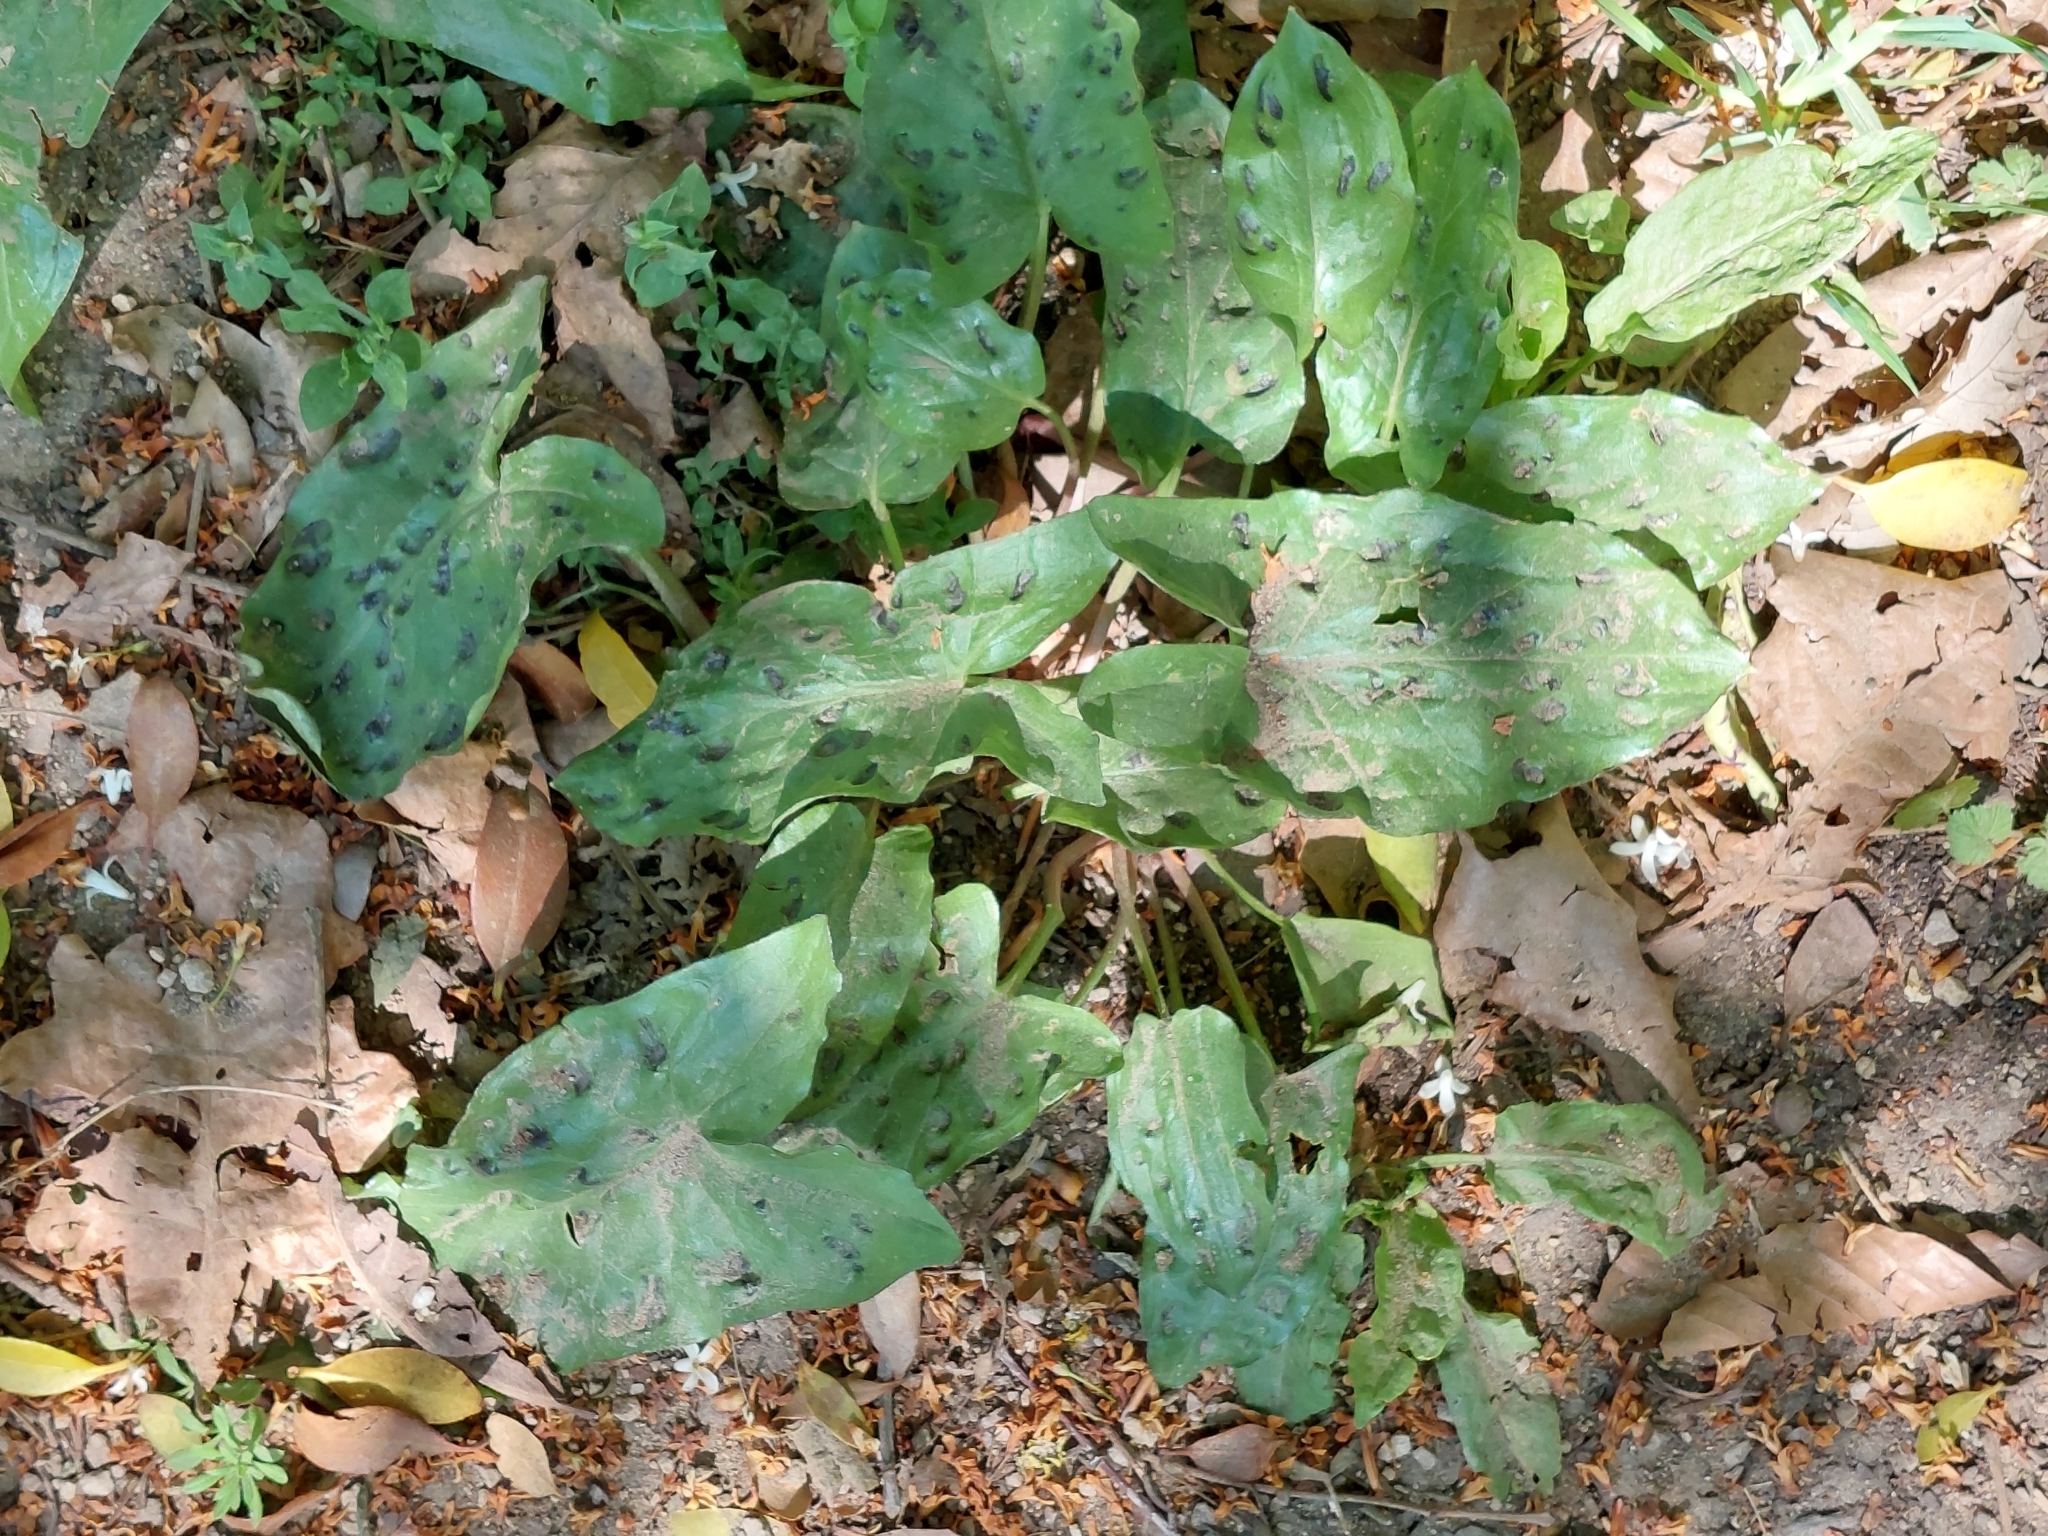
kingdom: Plantae
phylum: Tracheophyta
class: Liliopsida
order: Alismatales
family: Araceae
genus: Arum
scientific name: Arum maculatum
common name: Lords-and-ladies
